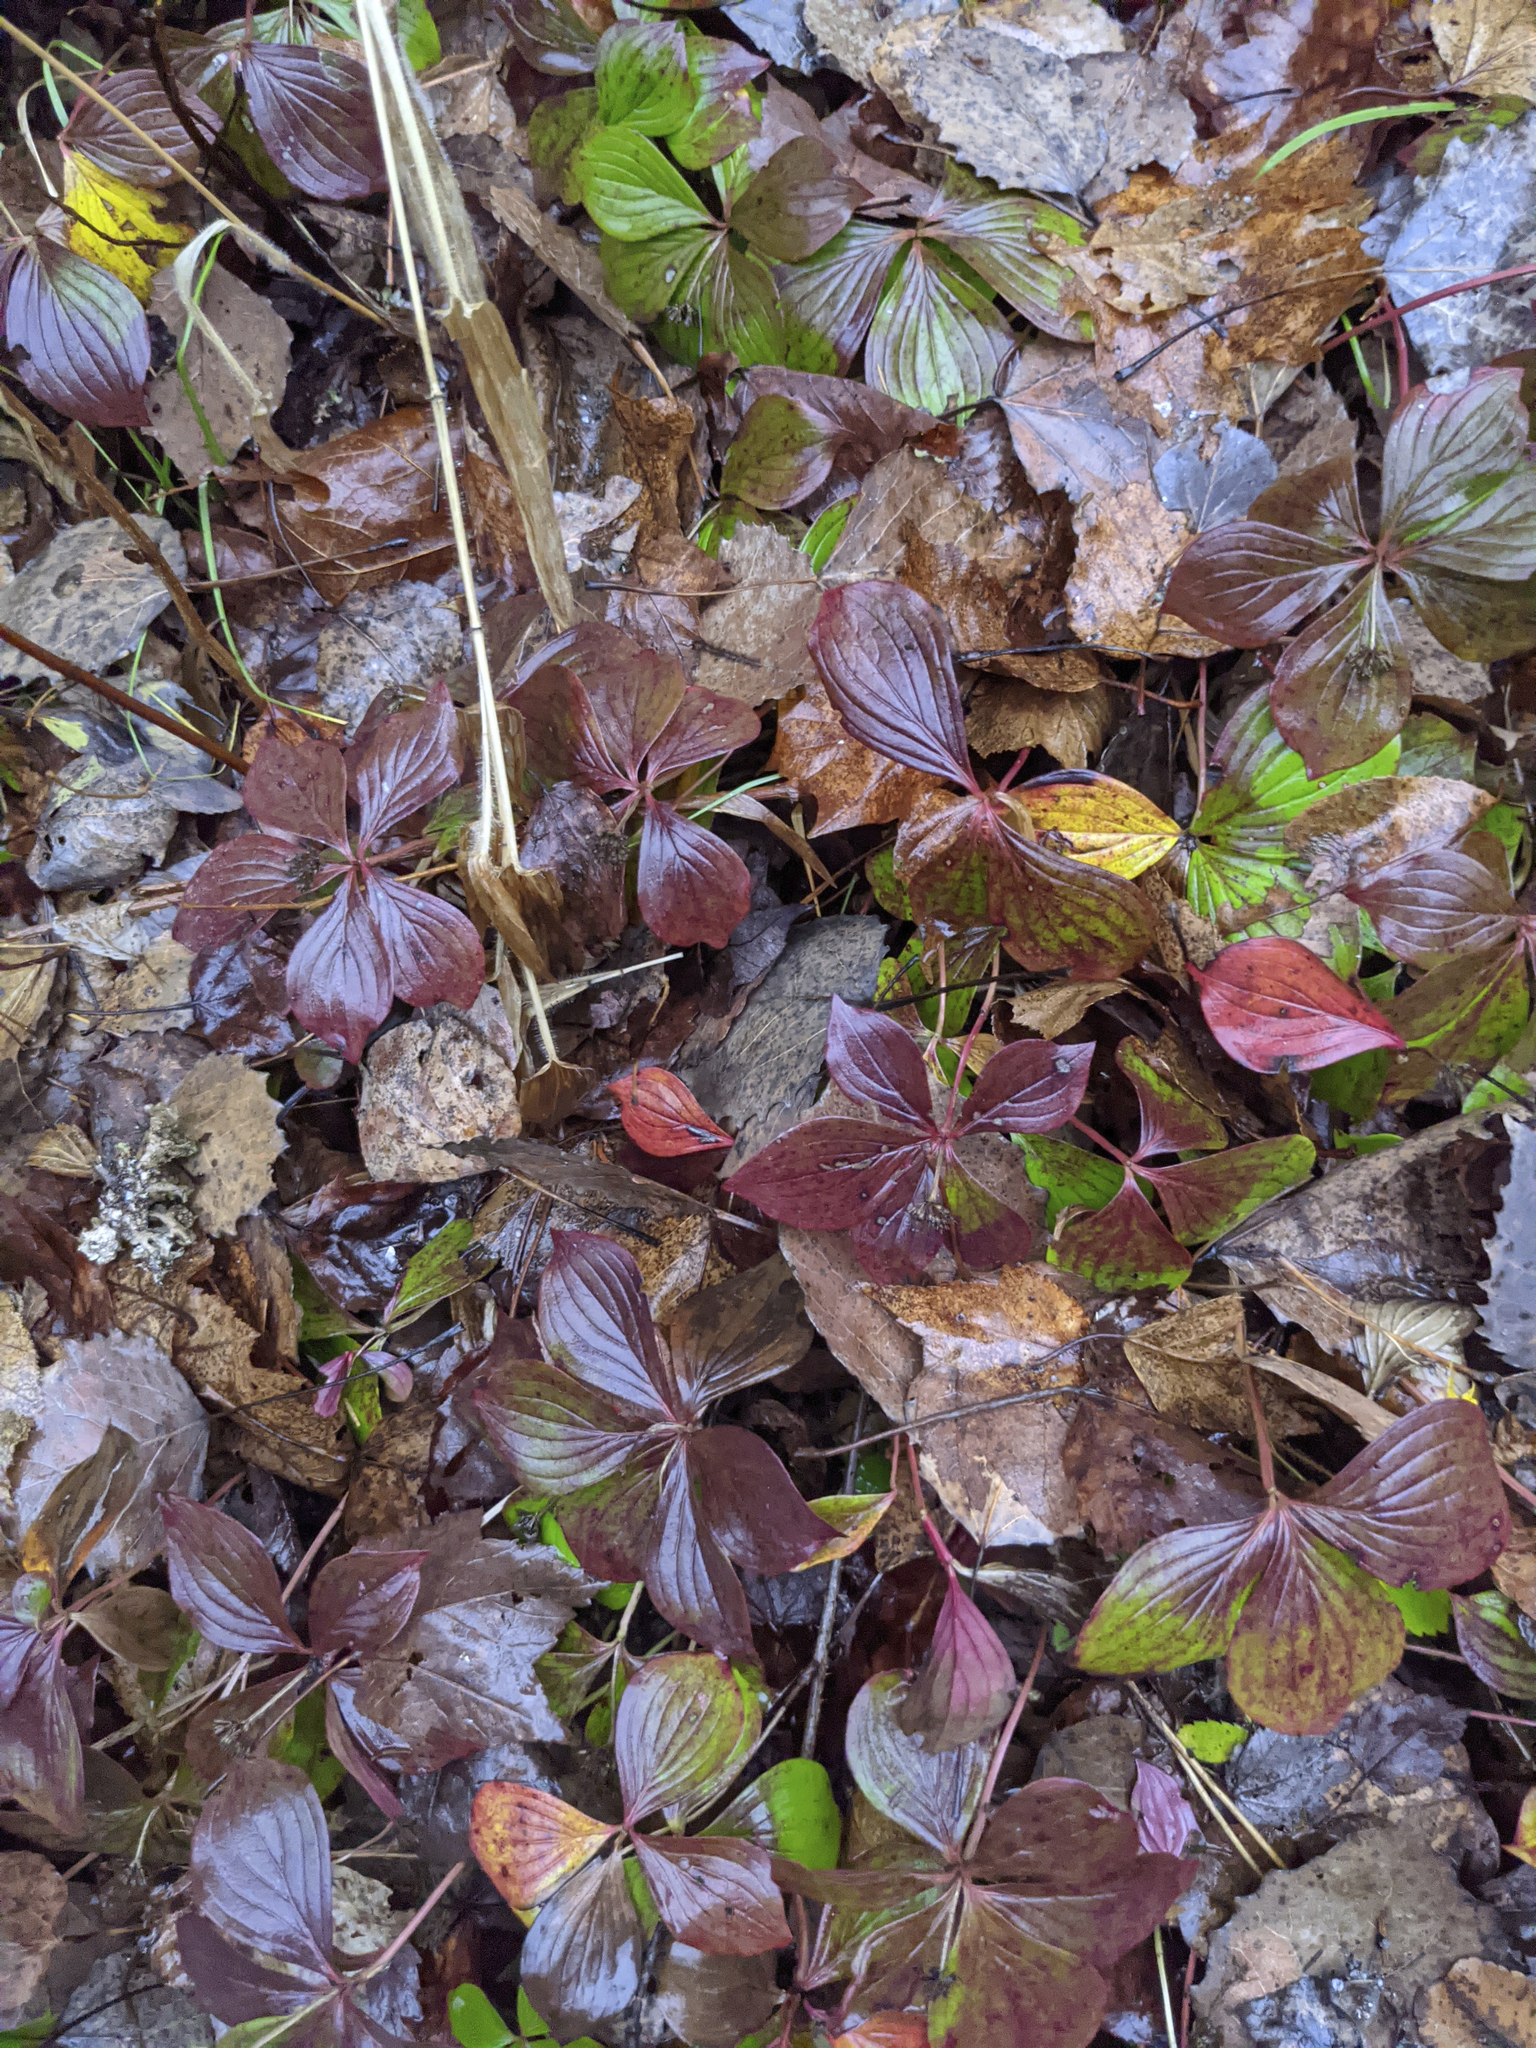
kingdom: Plantae
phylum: Tracheophyta
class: Magnoliopsida
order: Cornales
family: Cornaceae
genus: Cornus
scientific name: Cornus canadensis
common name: Creeping dogwood
